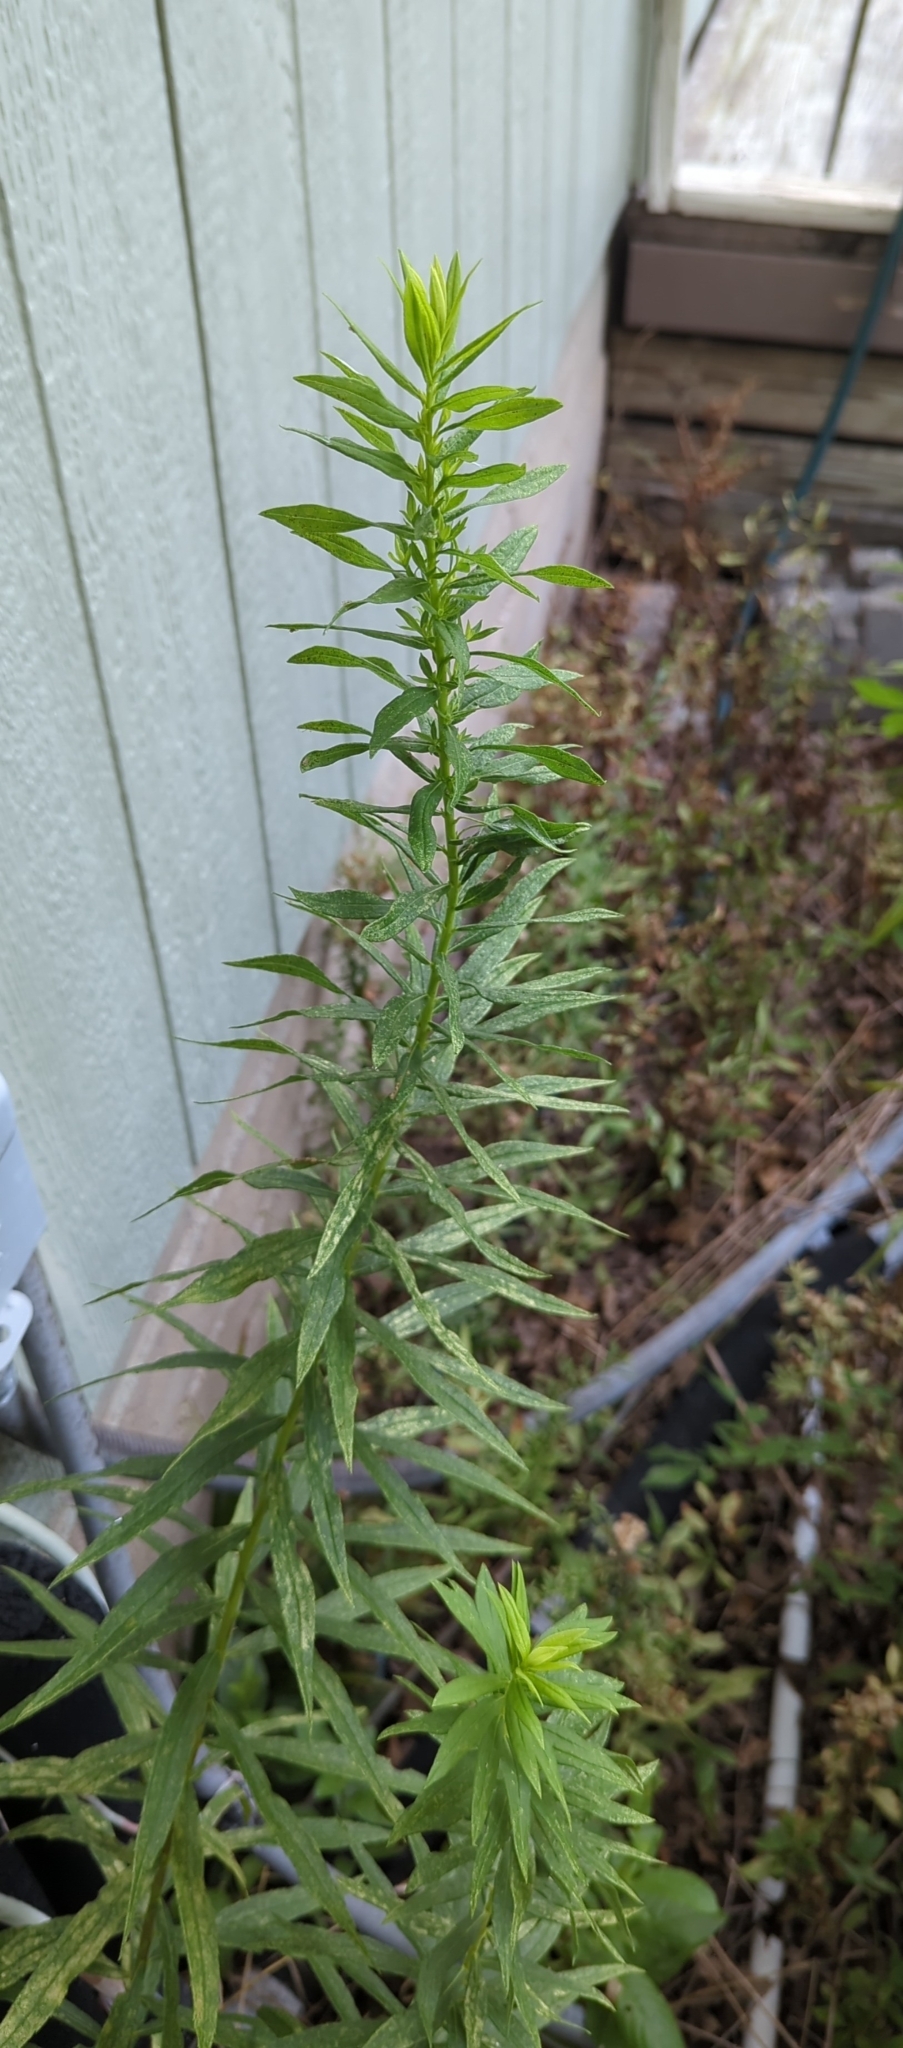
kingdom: Plantae
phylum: Tracheophyta
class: Magnoliopsida
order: Asterales
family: Asteraceae
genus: Erigeron
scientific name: Erigeron canadensis
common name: Canadian fleabane
